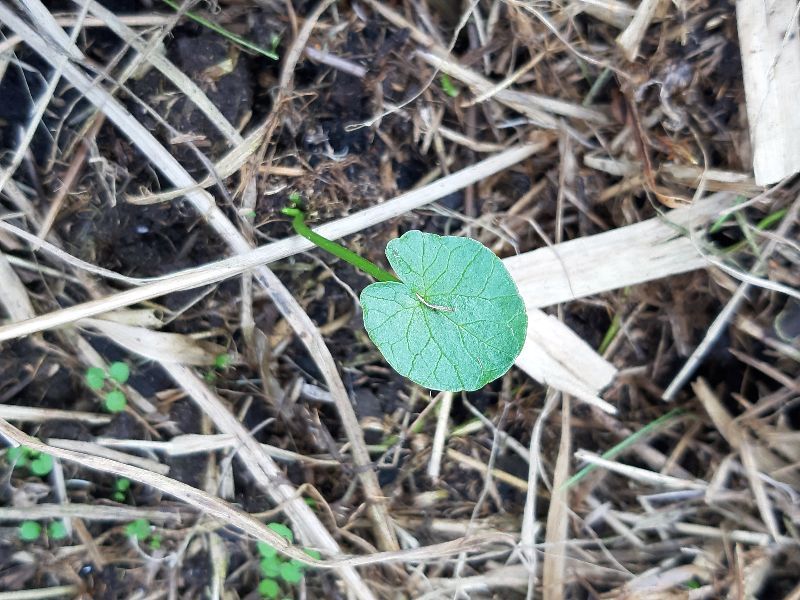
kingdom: Plantae
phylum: Tracheophyta
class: Magnoliopsida
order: Ranunculales
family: Ranunculaceae
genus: Ficaria
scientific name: Ficaria verna
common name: Lesser celandine
